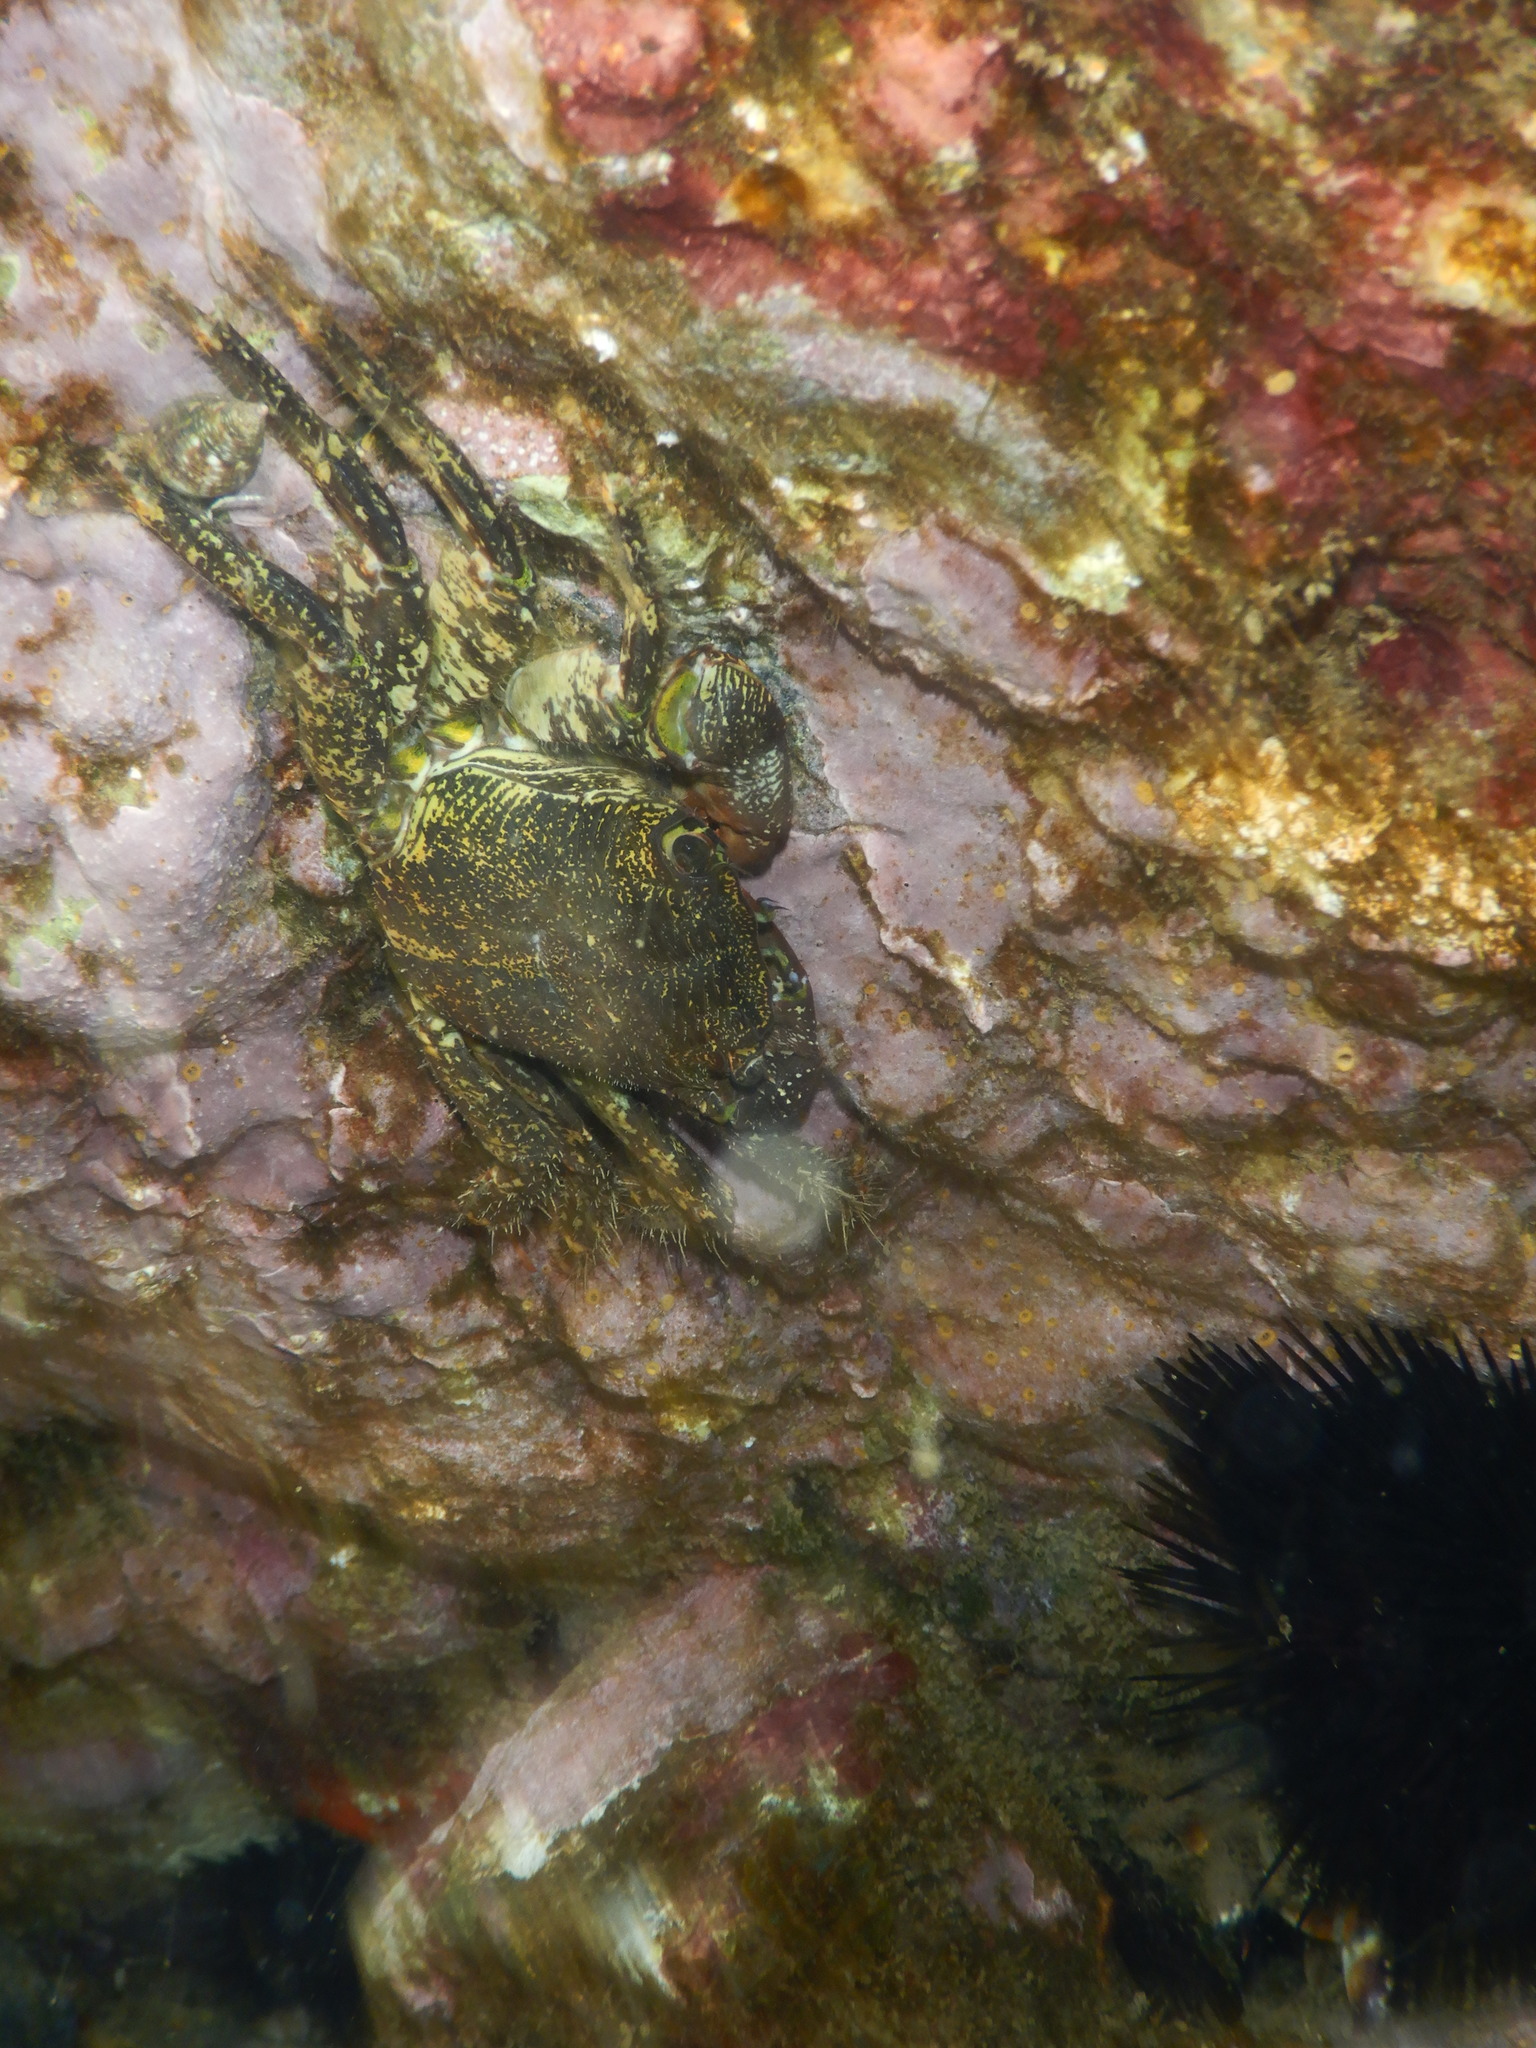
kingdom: Animalia
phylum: Arthropoda
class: Malacostraca
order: Decapoda
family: Grapsidae
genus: Pachygrapsus
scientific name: Pachygrapsus marmoratus
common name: Marbled rock crab
